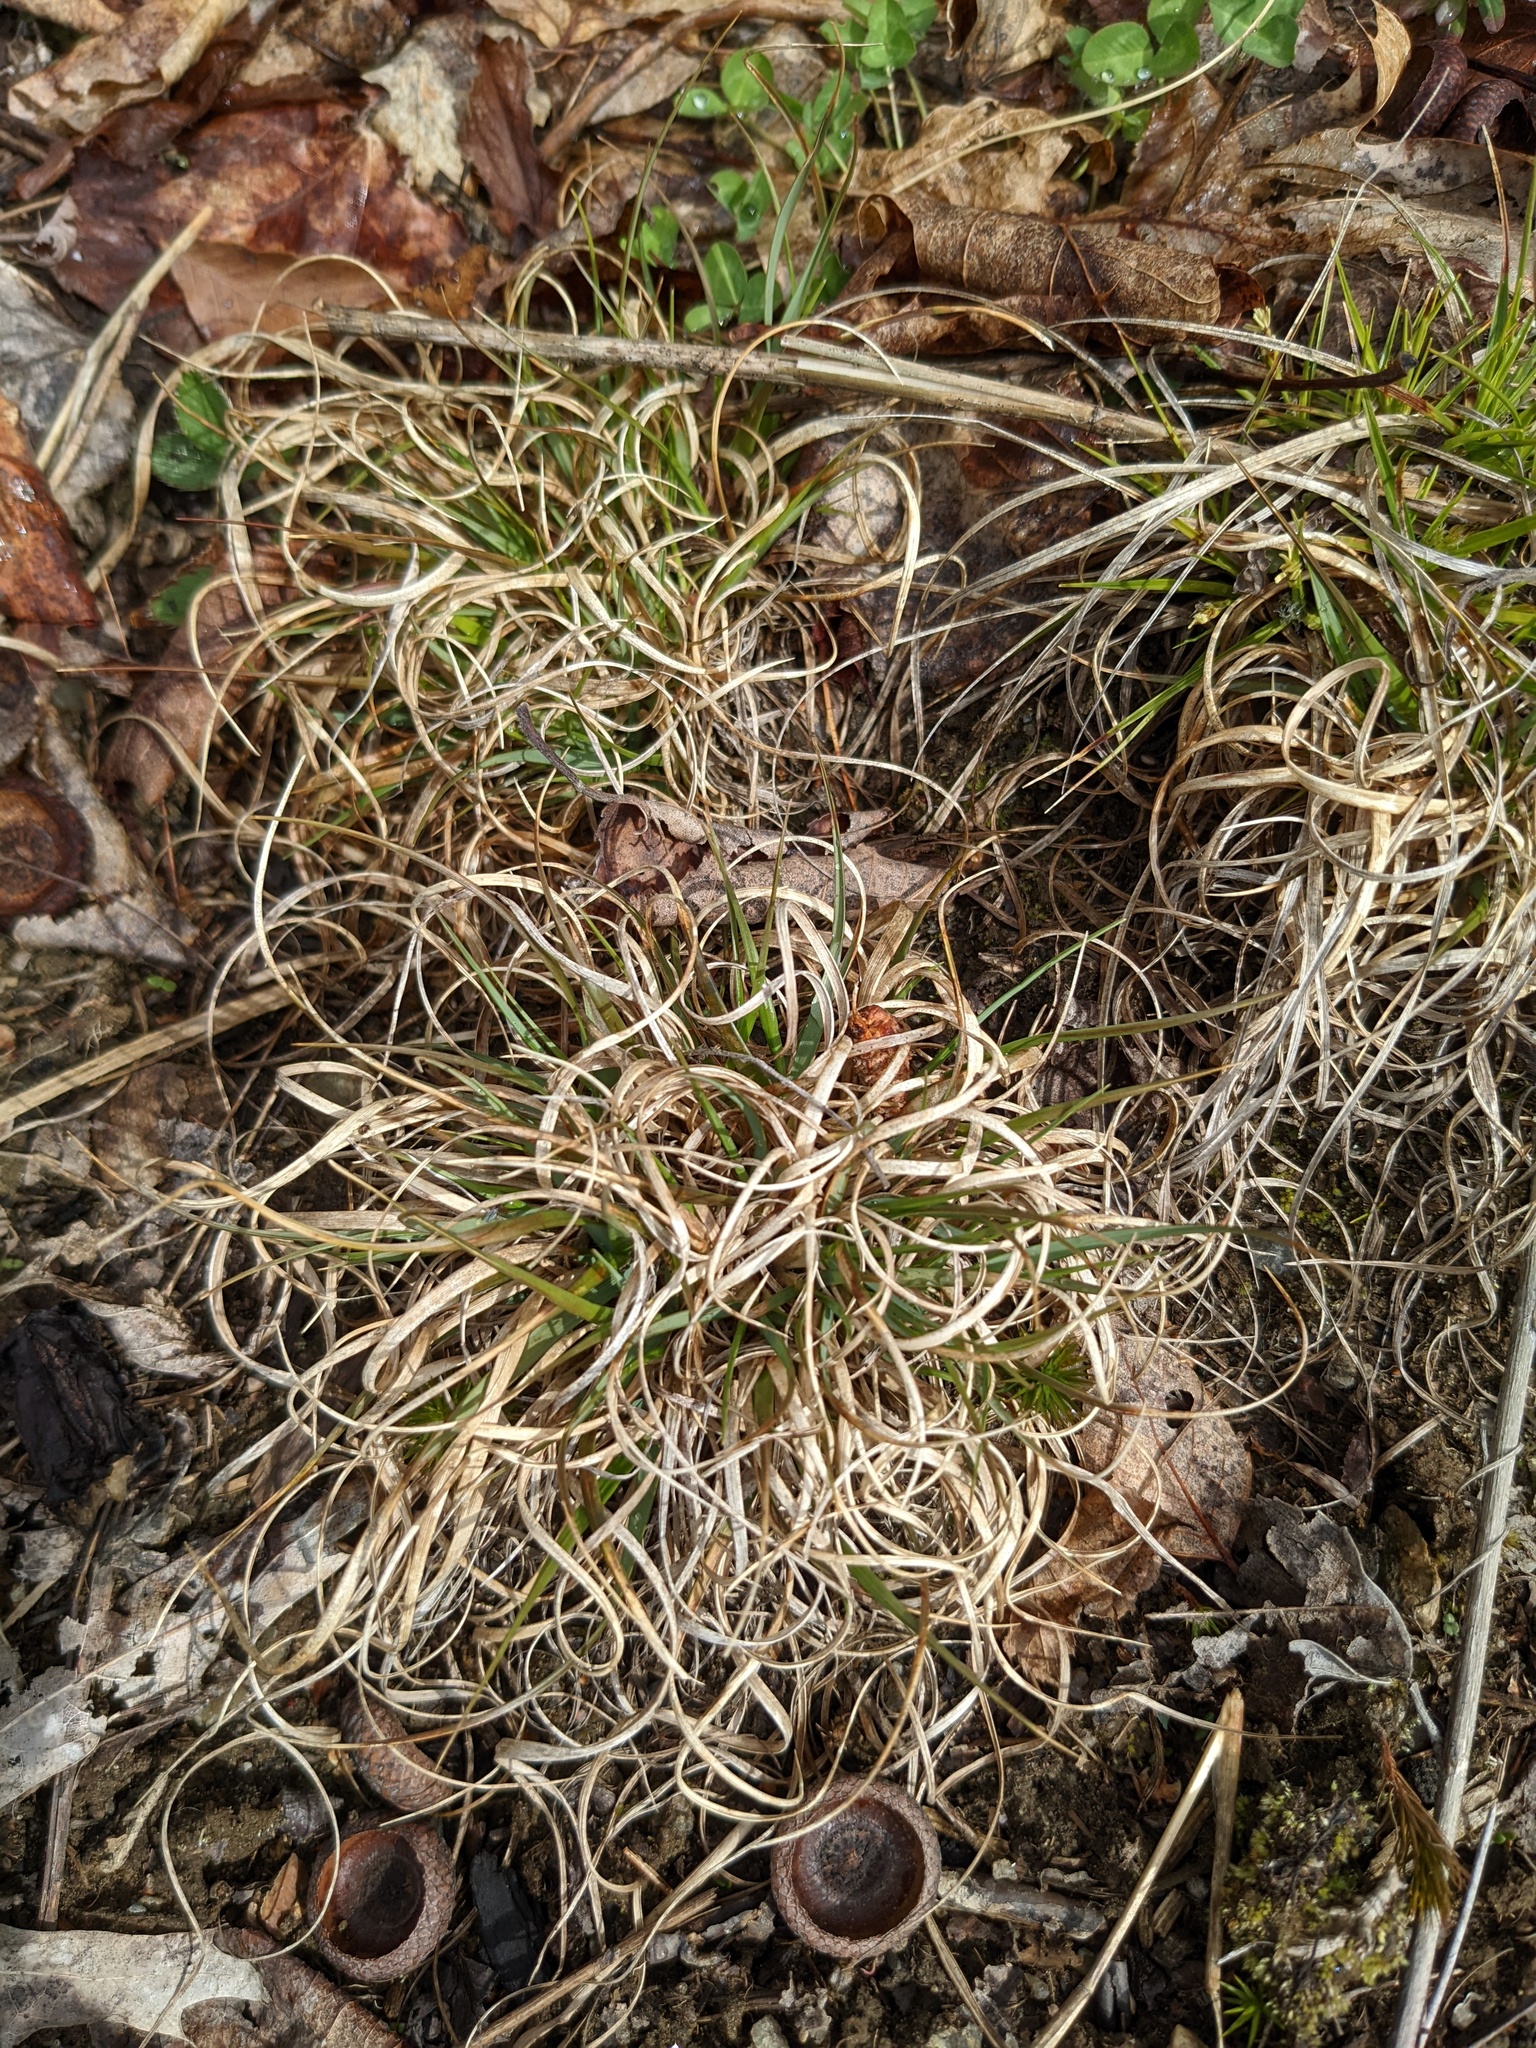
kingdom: Plantae
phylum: Tracheophyta
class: Liliopsida
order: Poales
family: Poaceae
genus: Danthonia
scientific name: Danthonia spicata
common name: Common wild oatgrass
